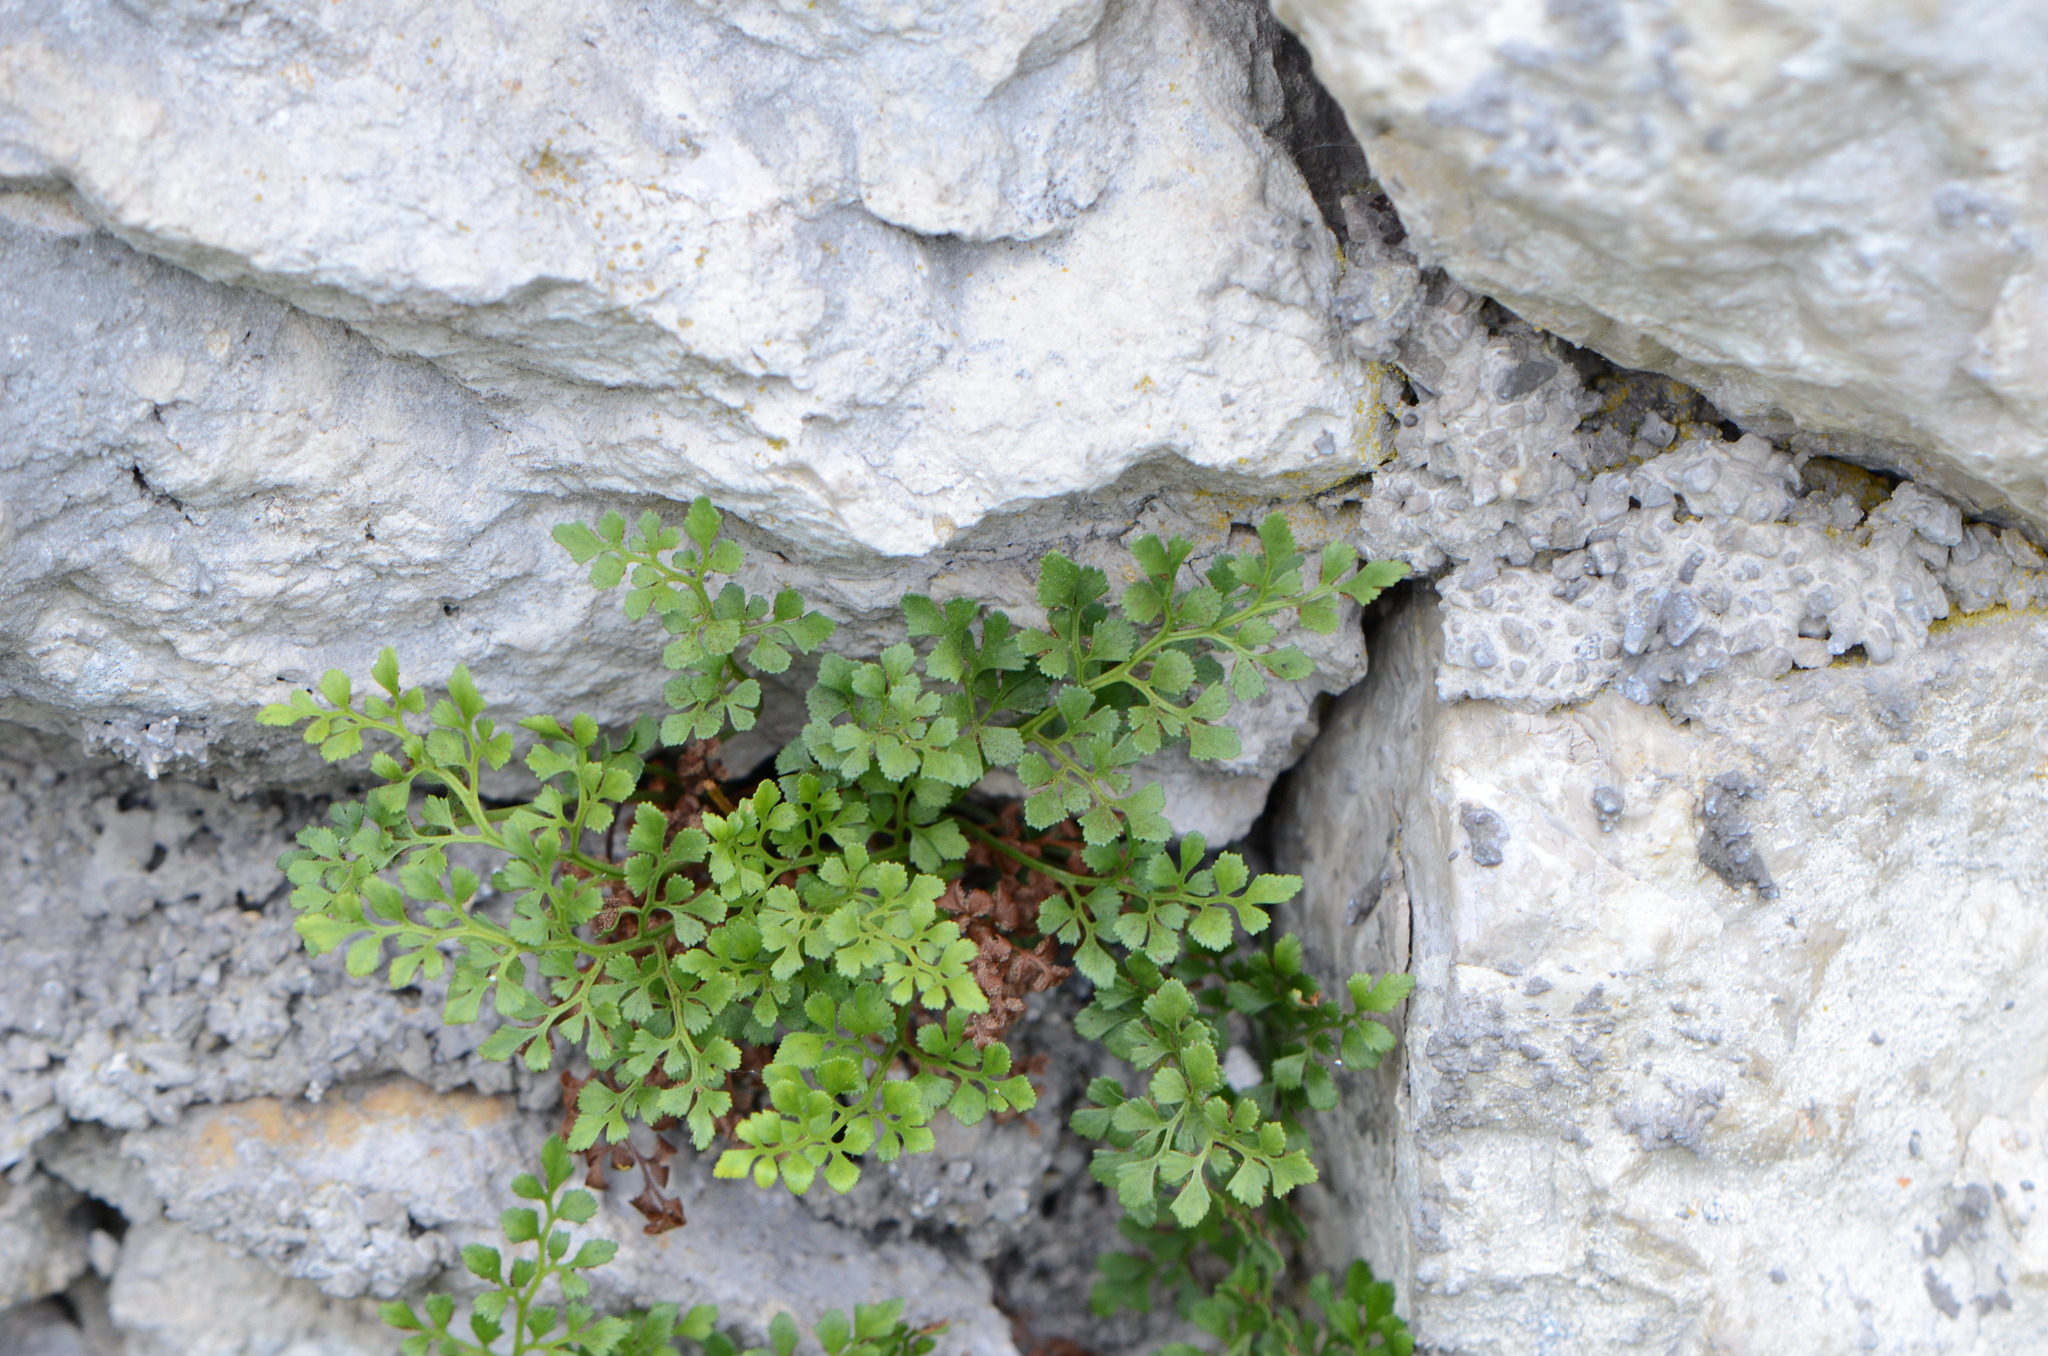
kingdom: Plantae
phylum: Tracheophyta
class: Polypodiopsida
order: Polypodiales
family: Aspleniaceae
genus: Asplenium
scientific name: Asplenium ruta-muraria
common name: Wall-rue
